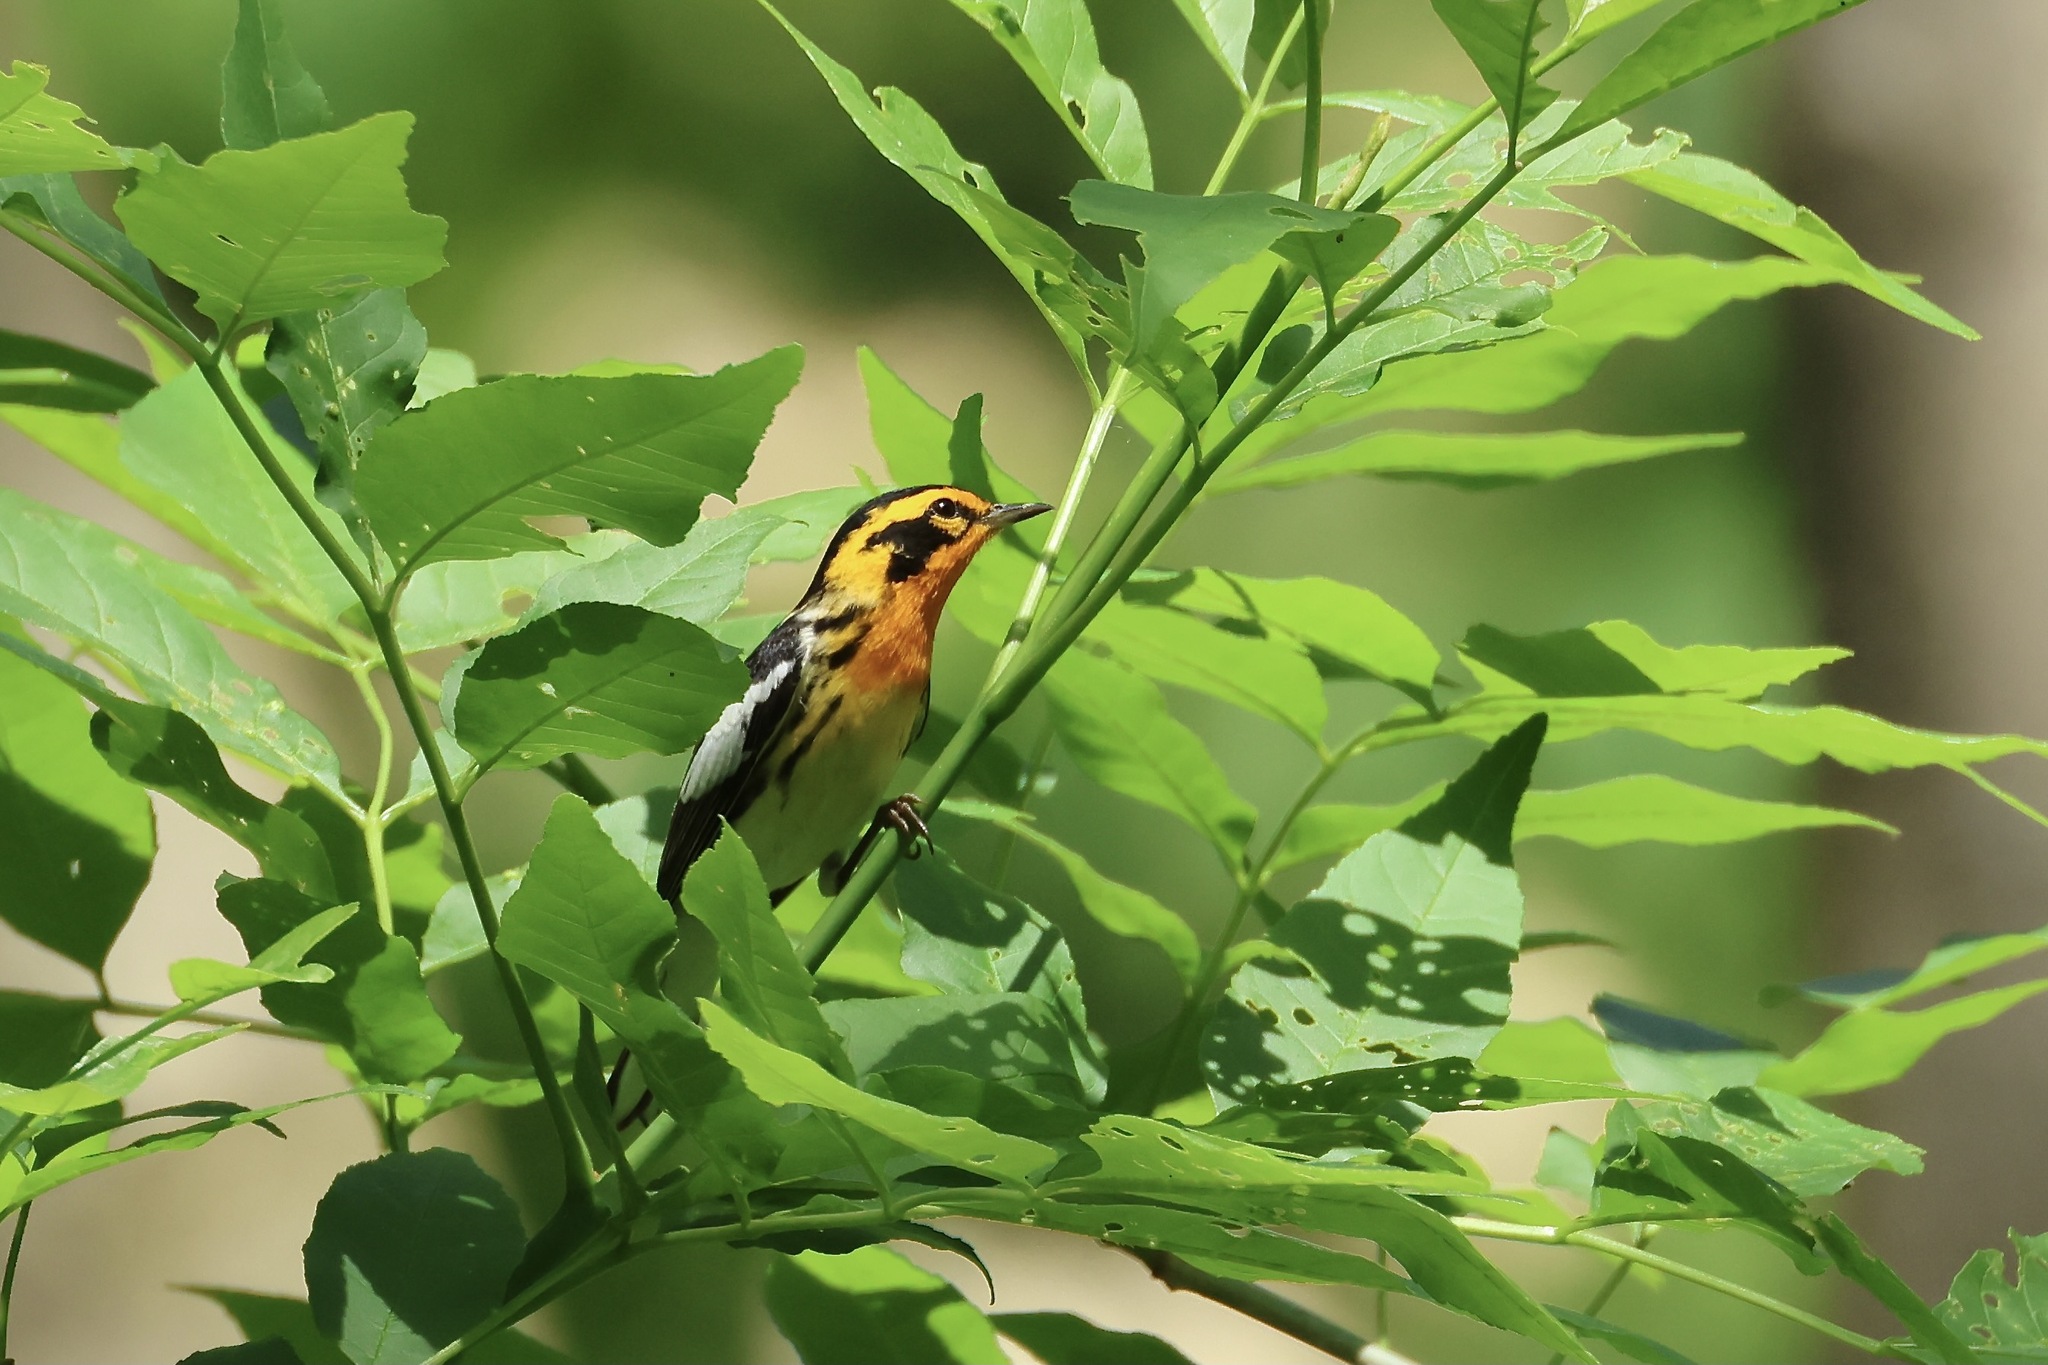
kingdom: Animalia
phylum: Chordata
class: Aves
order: Passeriformes
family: Parulidae
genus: Setophaga
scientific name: Setophaga fusca
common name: Blackburnian warbler
